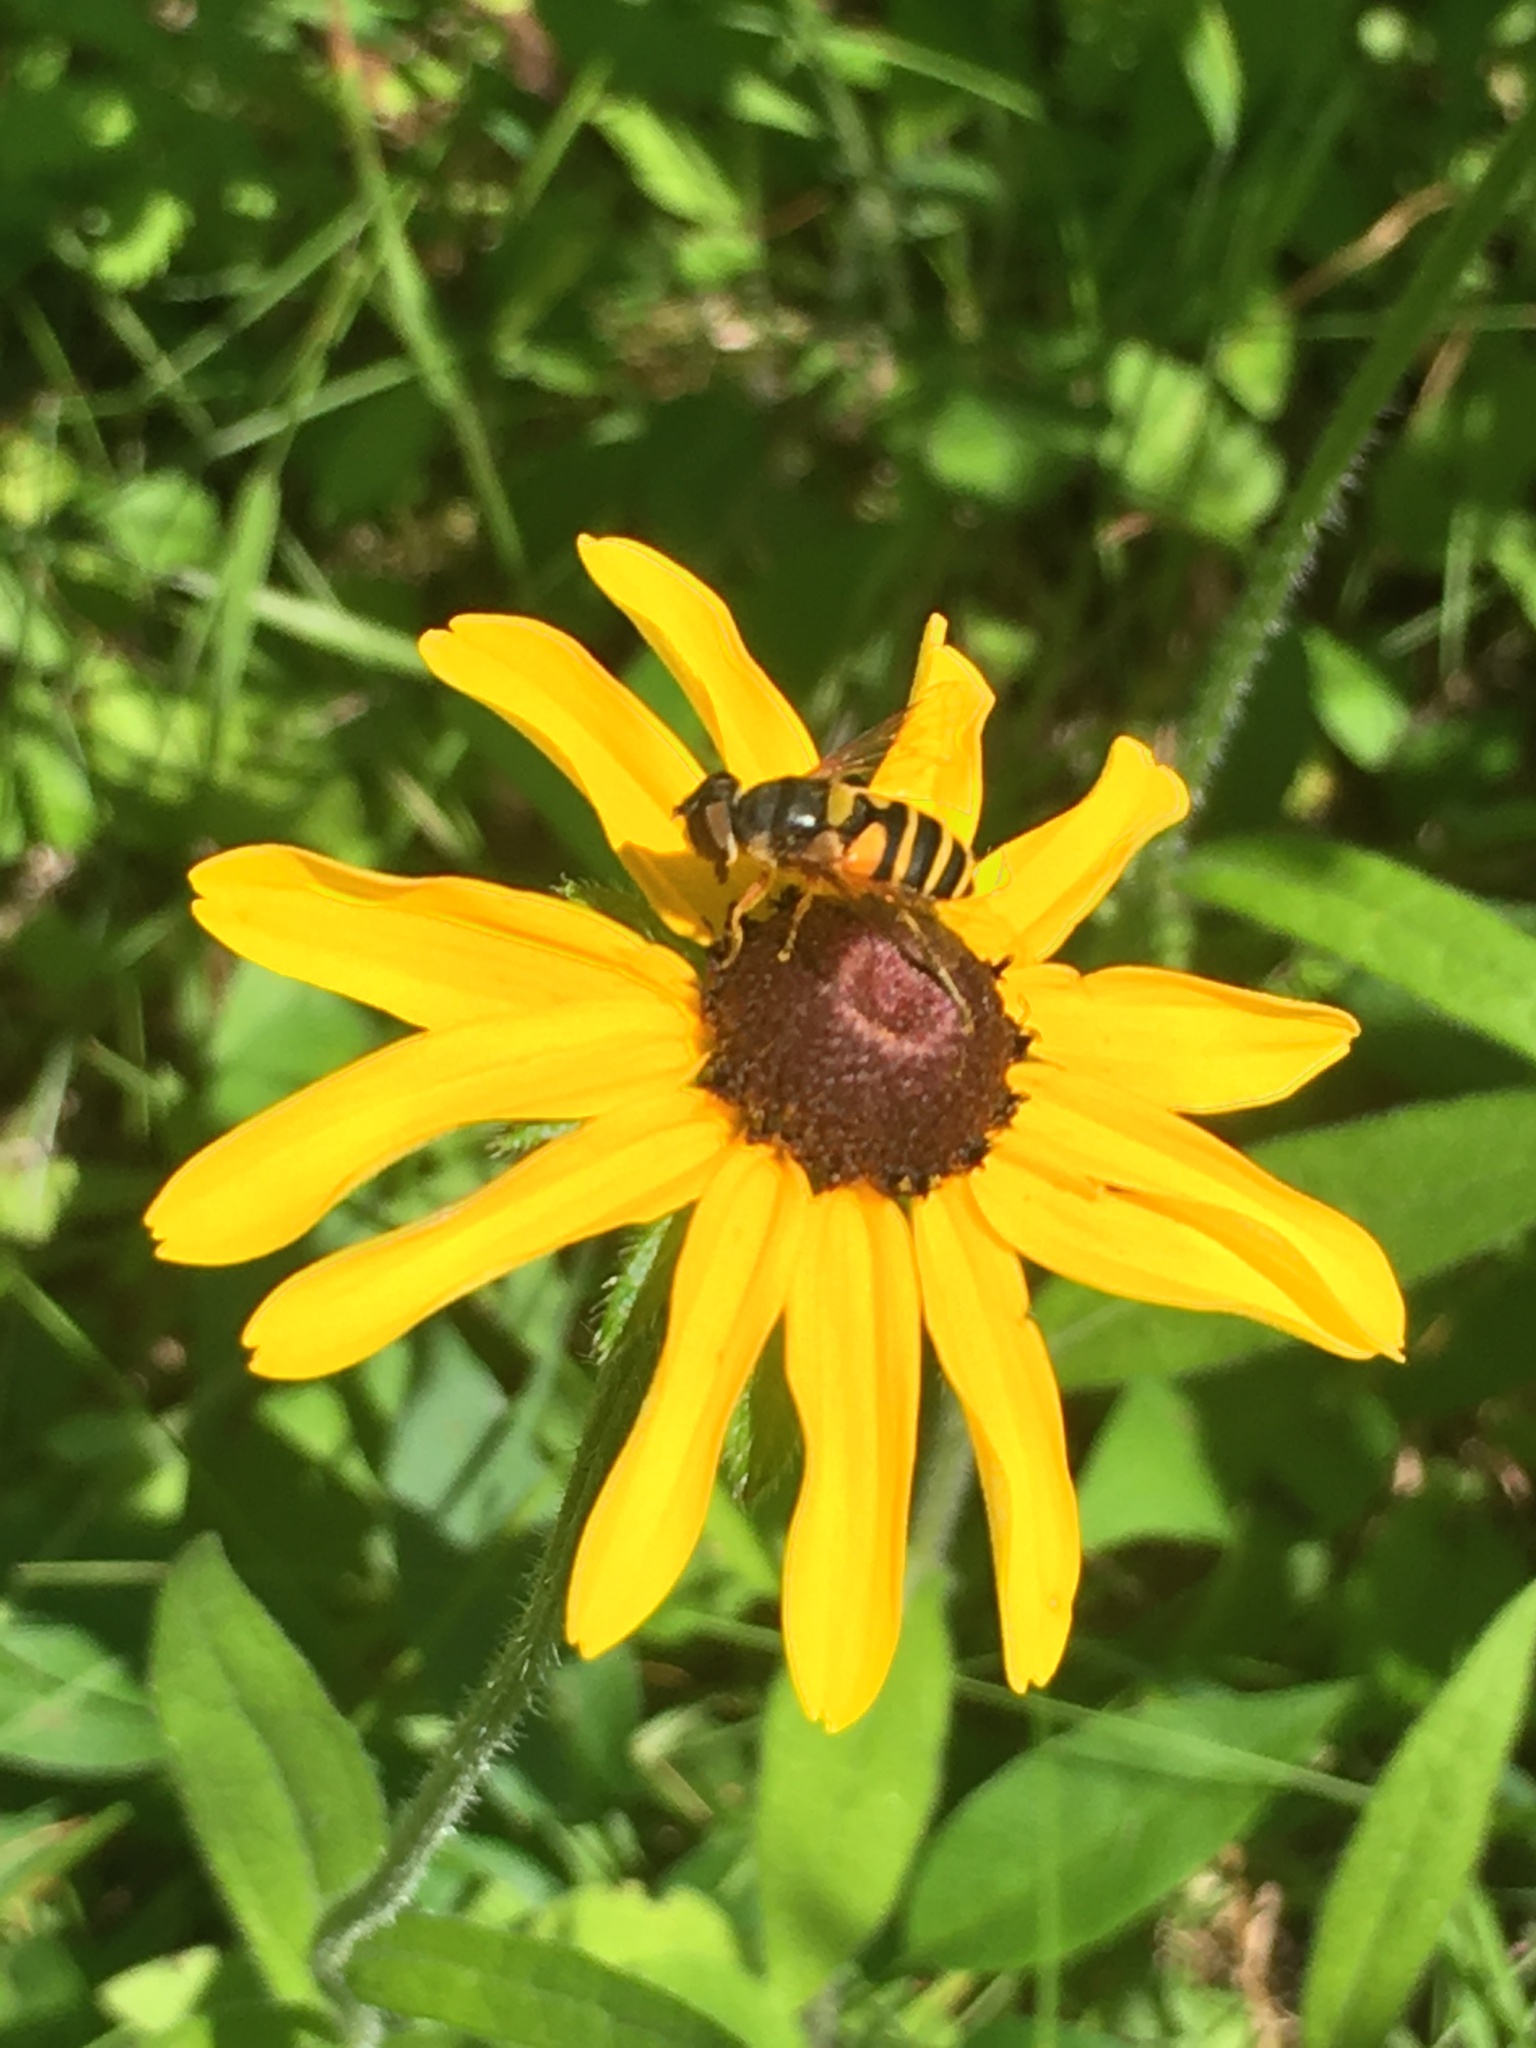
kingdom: Animalia
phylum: Arthropoda
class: Insecta
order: Diptera
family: Syrphidae
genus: Eristalis
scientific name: Eristalis transversa
